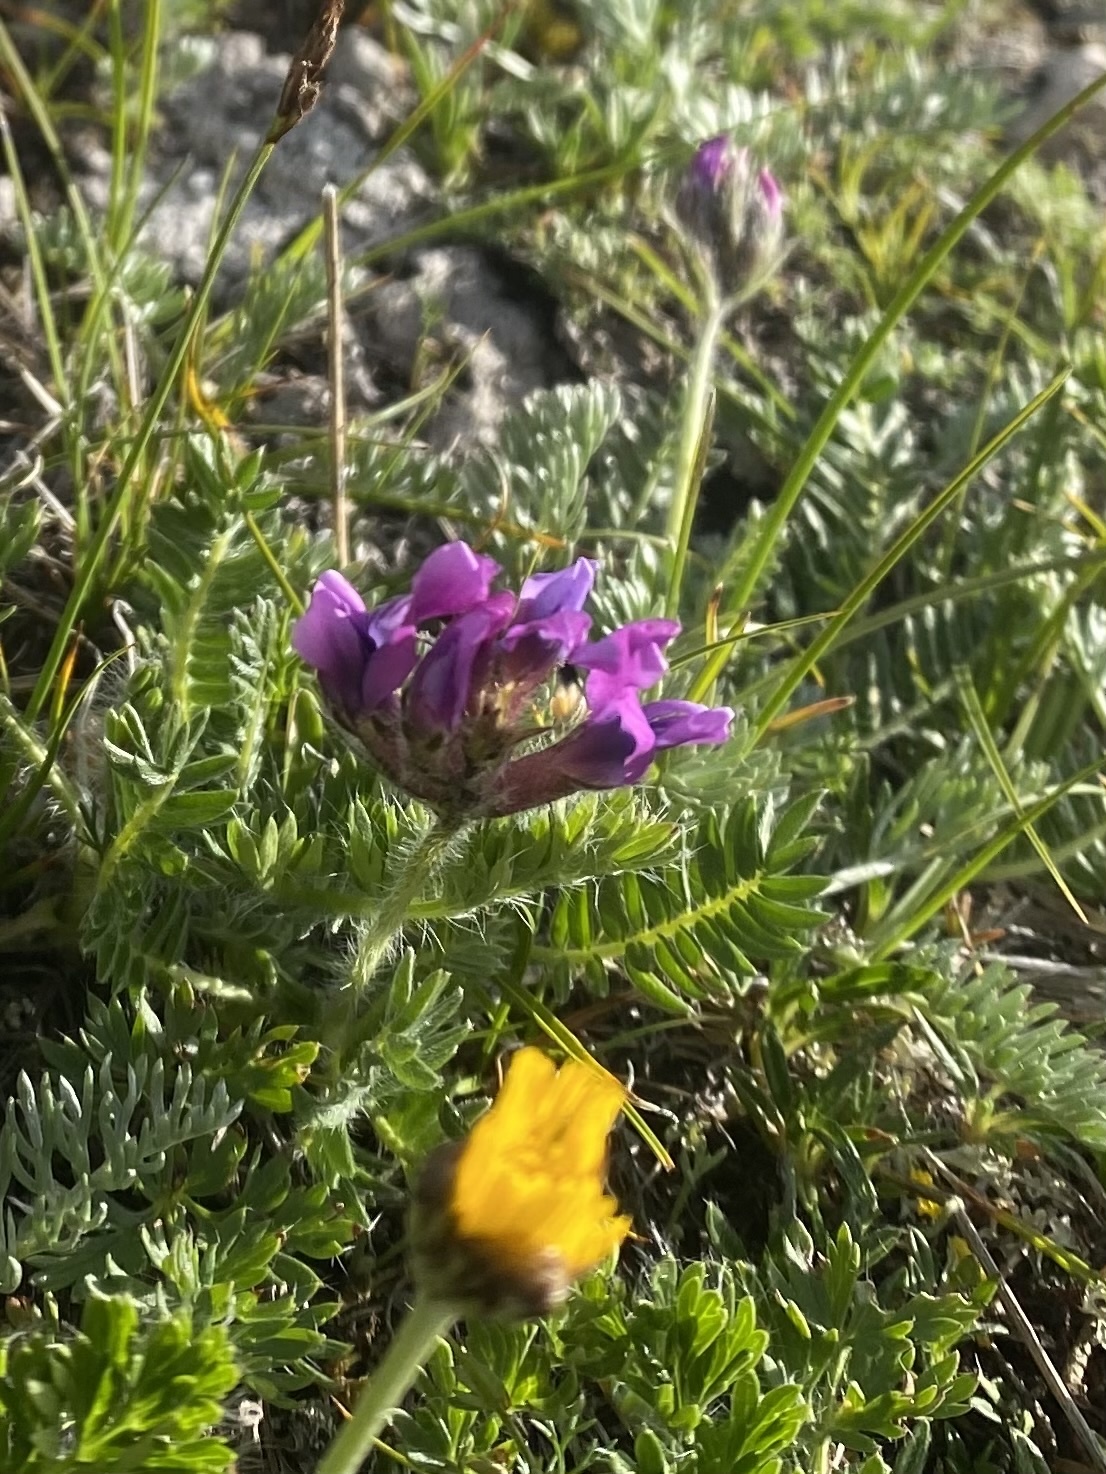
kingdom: Plantae
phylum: Tracheophyta
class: Magnoliopsida
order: Fabales
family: Fabaceae
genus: Oxytropis
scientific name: Oxytropis lazica
